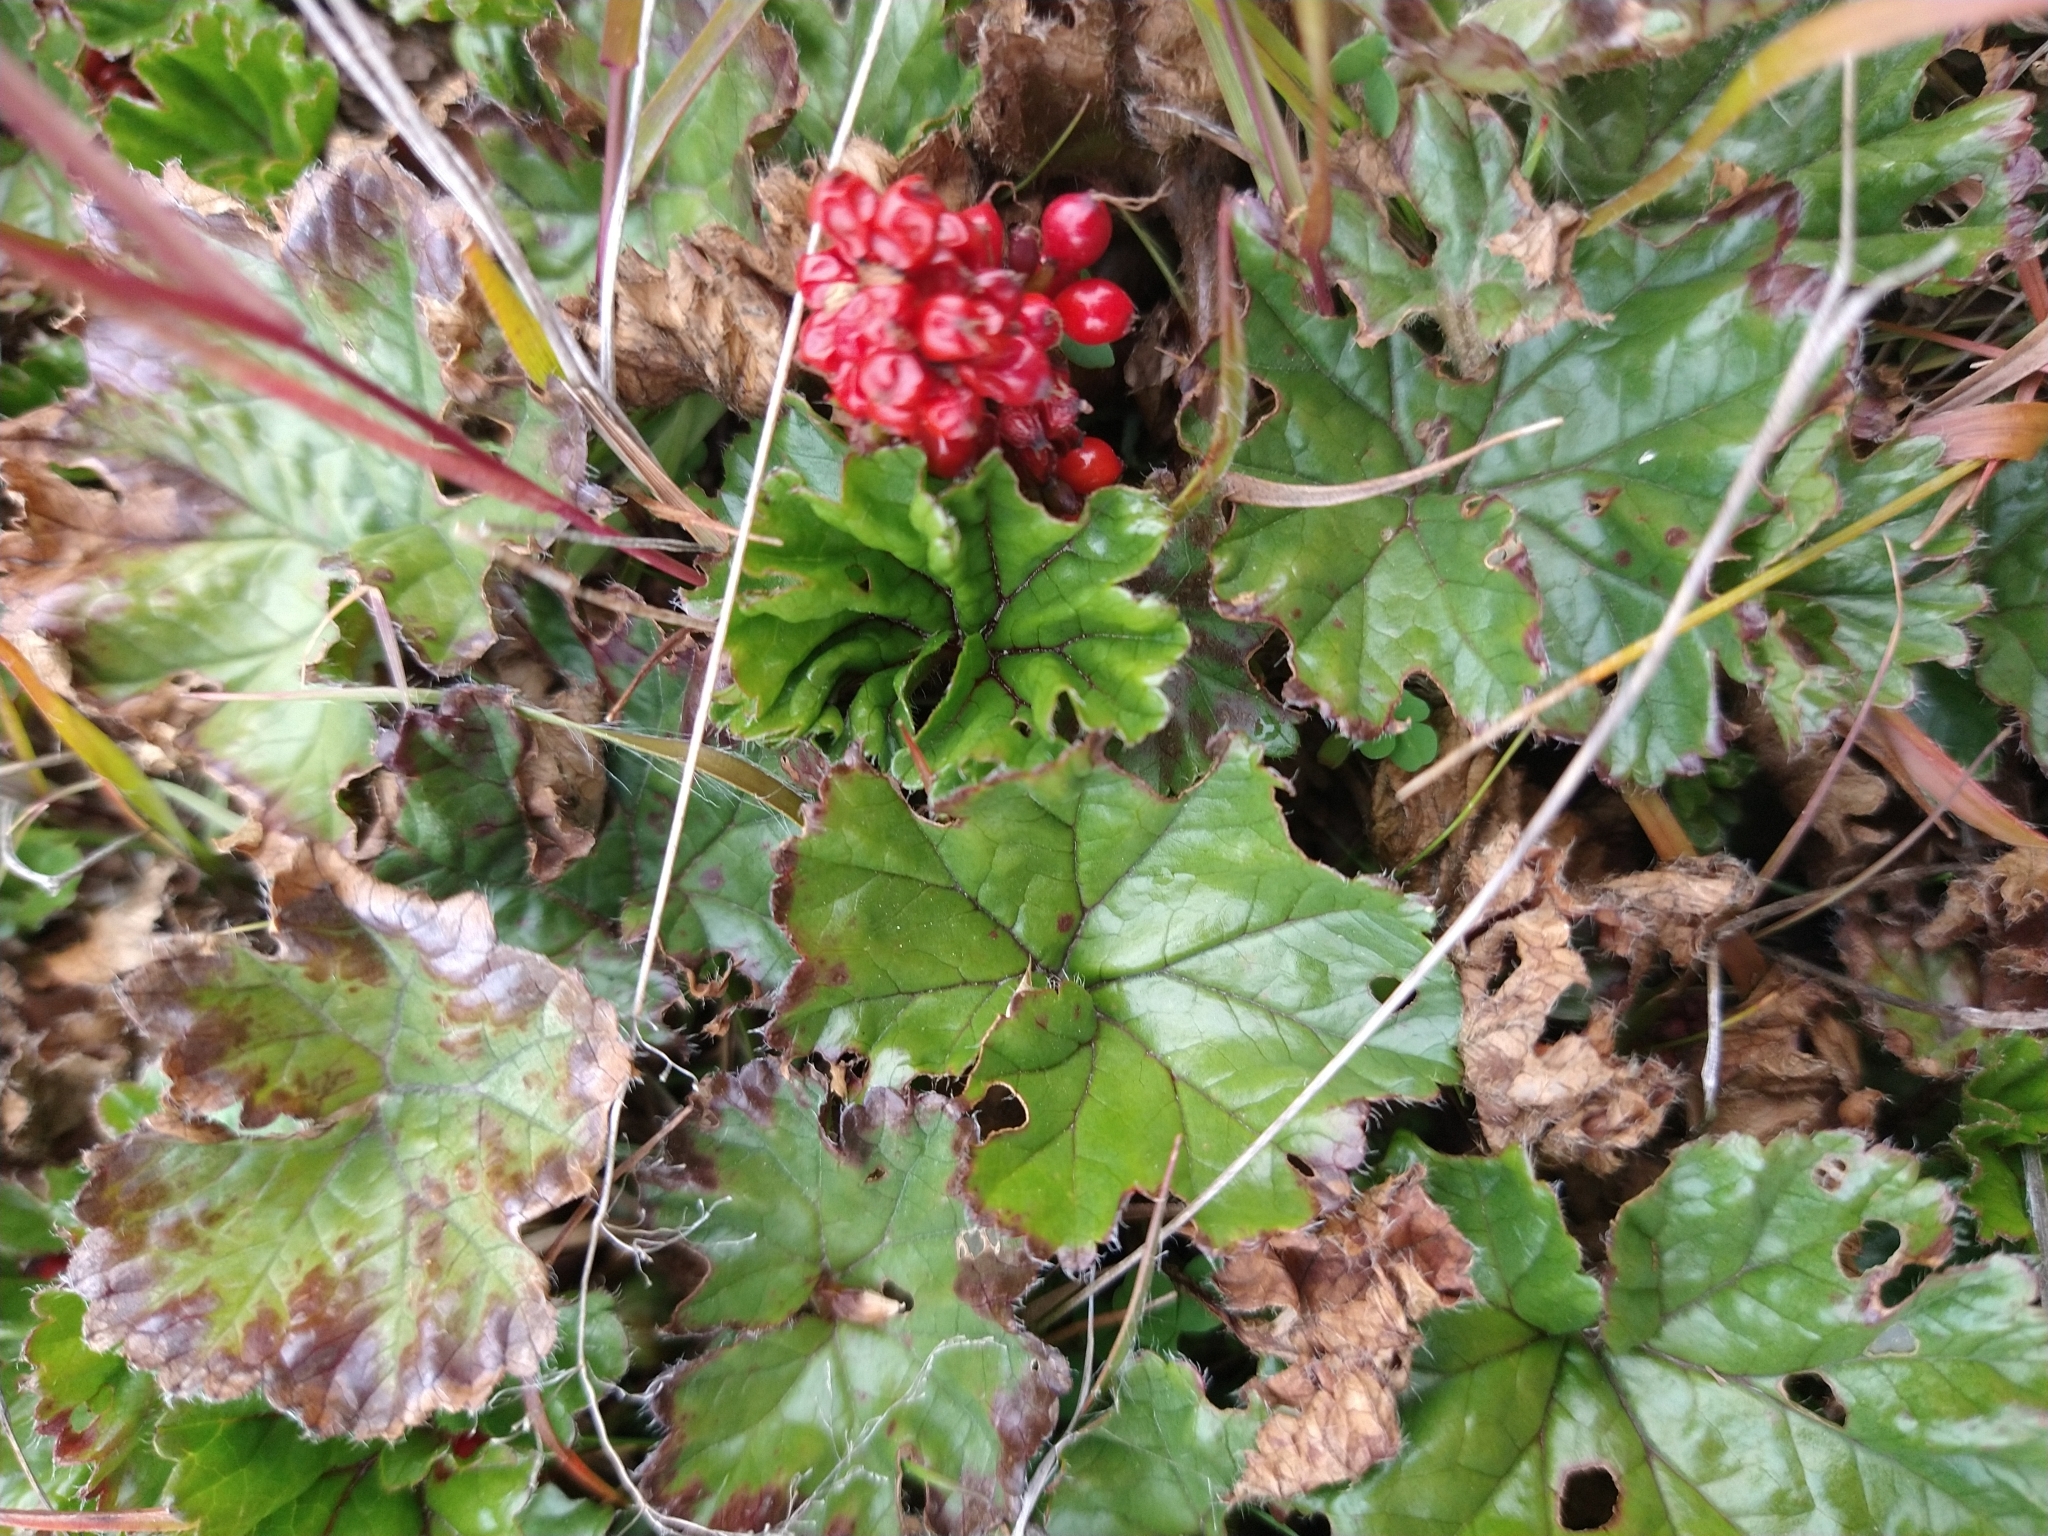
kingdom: Plantae
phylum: Tracheophyta
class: Magnoliopsida
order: Gunnerales
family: Gunneraceae
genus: Gunnera
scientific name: Gunnera magellanica
